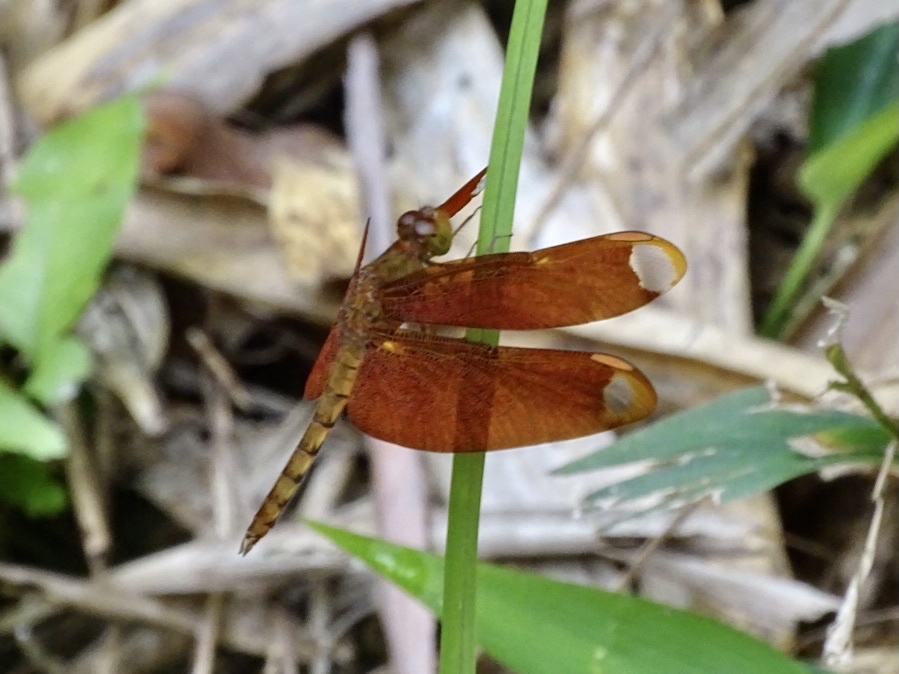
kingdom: Animalia
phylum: Arthropoda
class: Insecta
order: Odonata
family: Libellulidae
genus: Neurothemis
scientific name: Neurothemis fulvia
